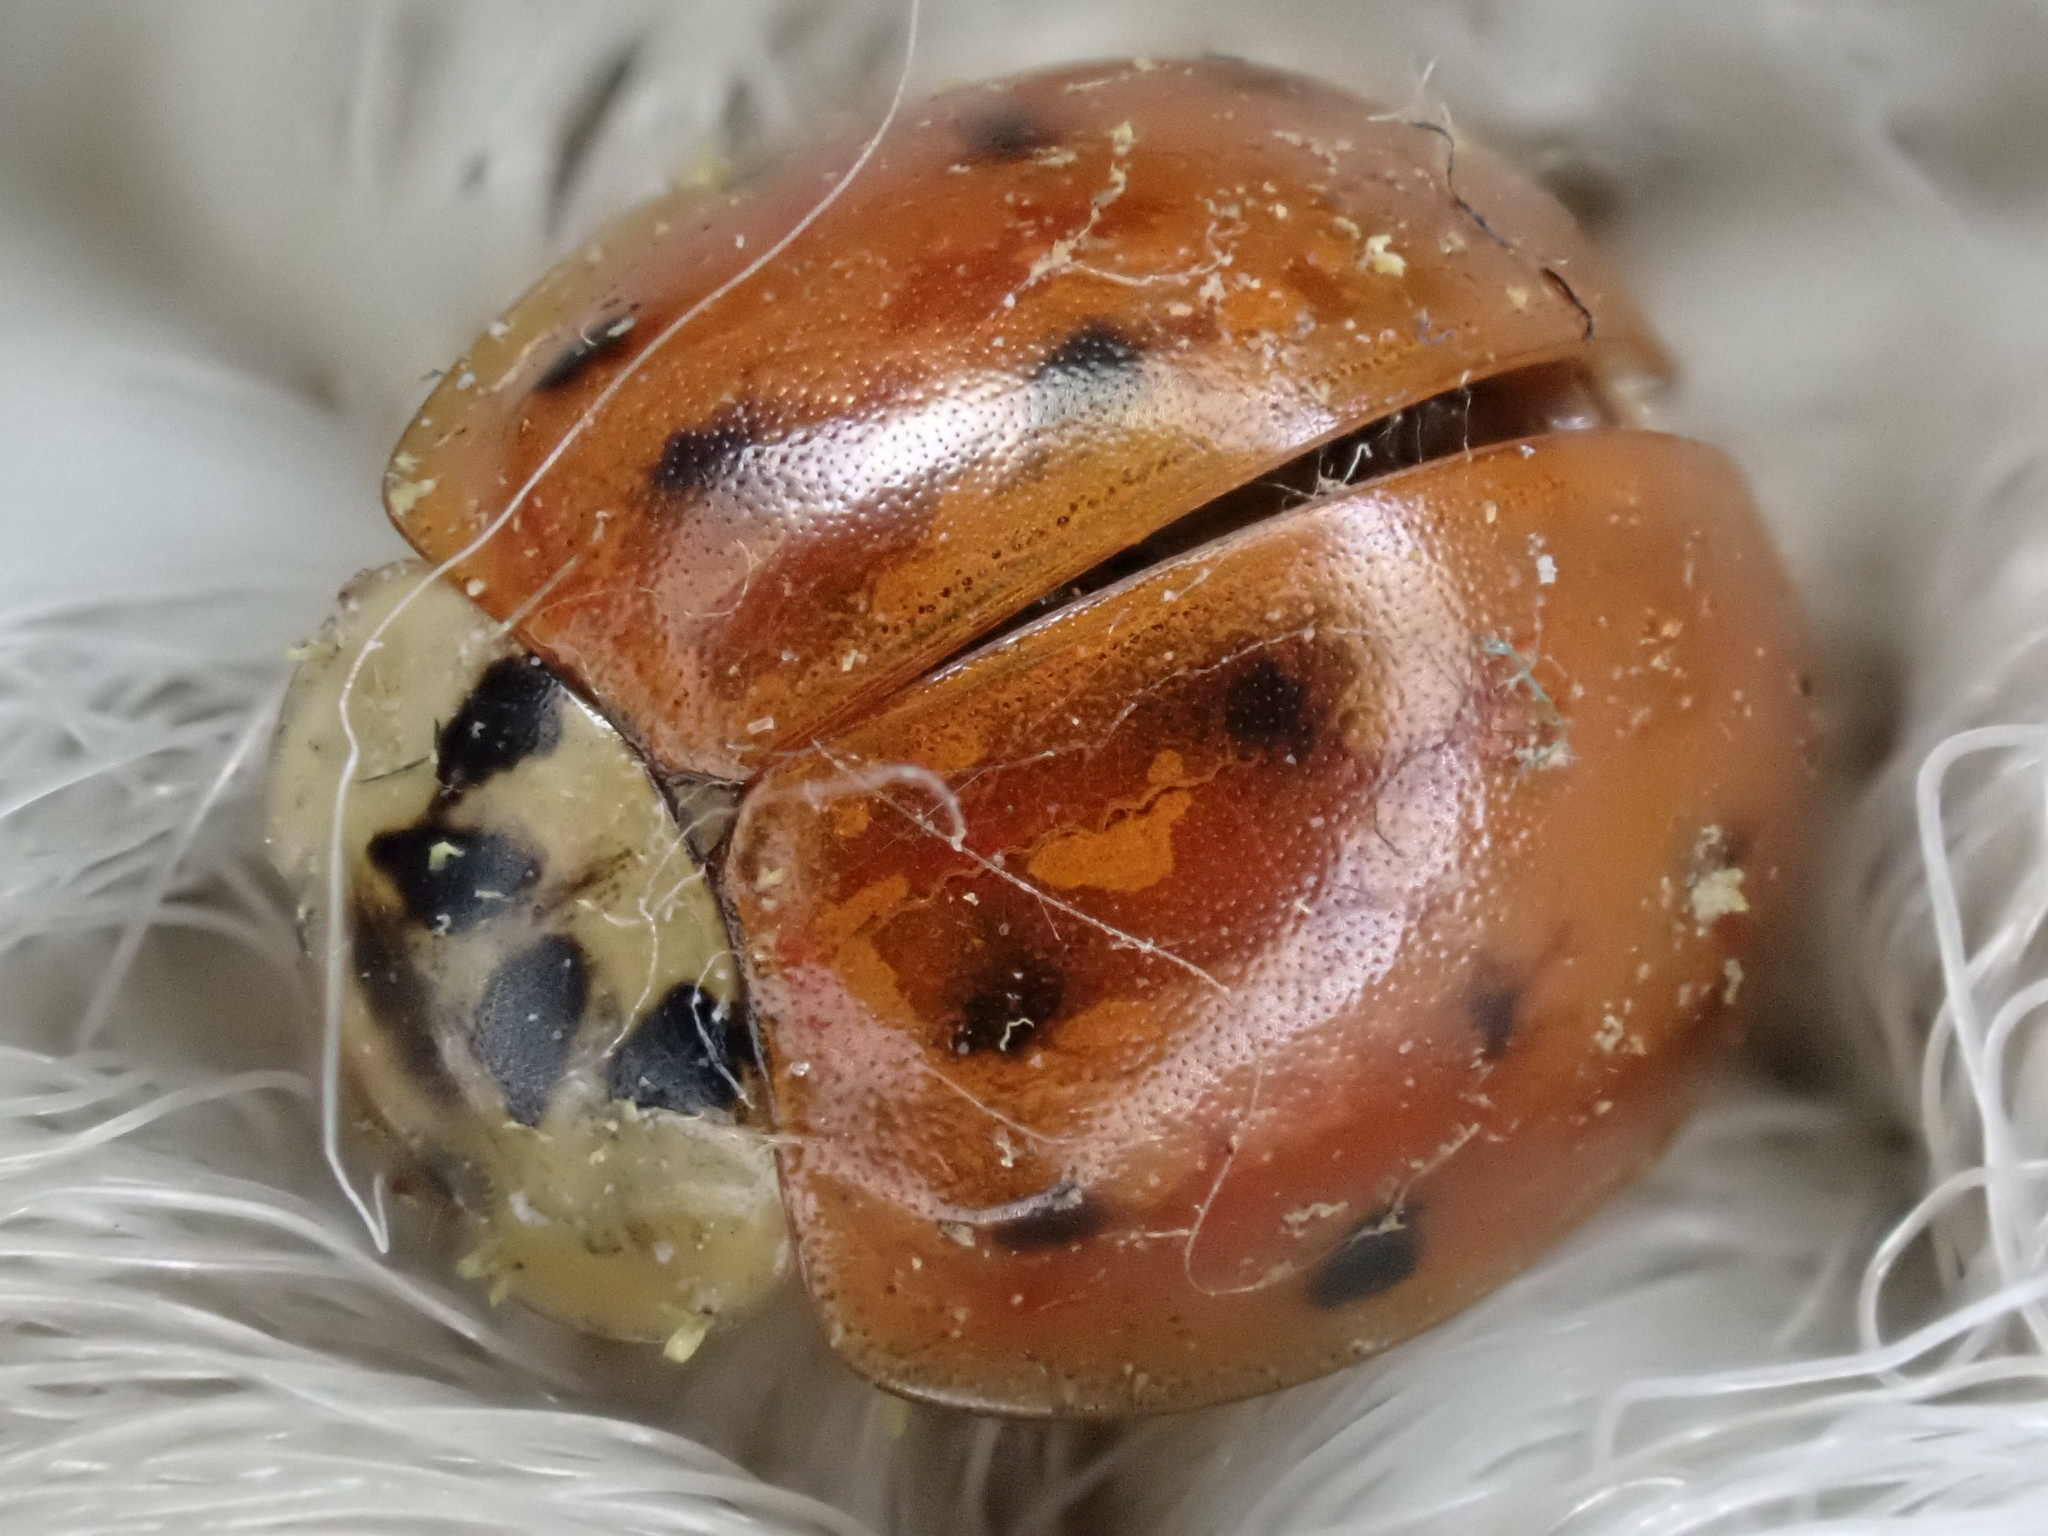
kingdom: Animalia
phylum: Arthropoda
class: Insecta
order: Coleoptera
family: Coccinellidae
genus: Harmonia
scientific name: Harmonia axyridis
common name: Harlequin ladybird
